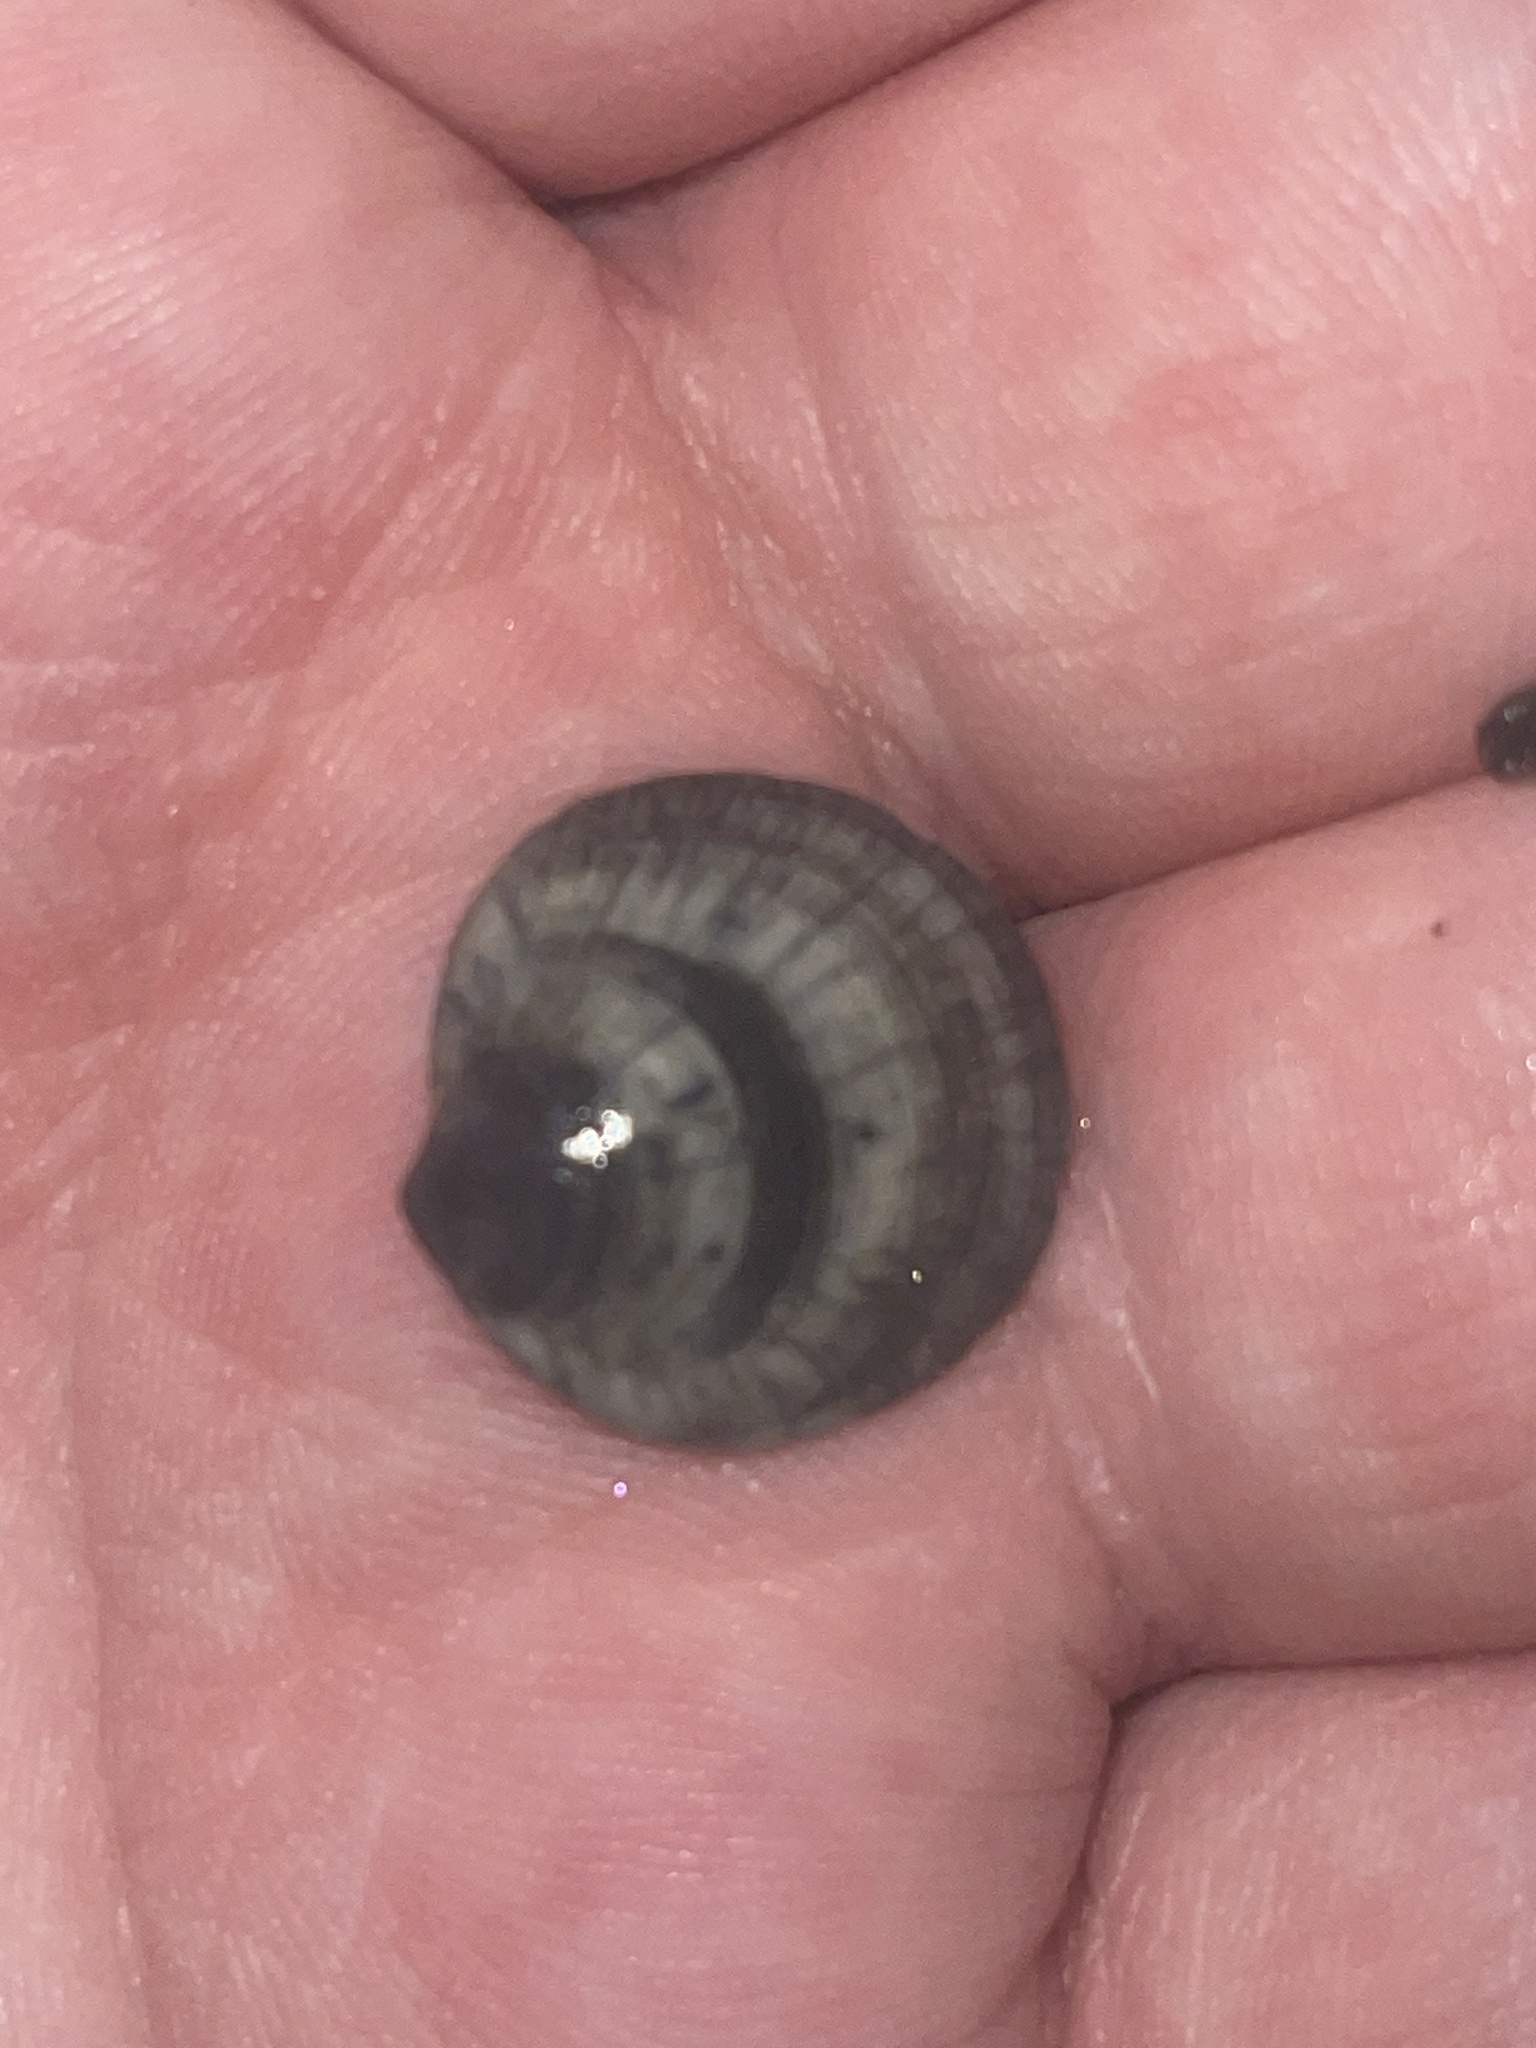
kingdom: Animalia
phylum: Mollusca
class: Bivalvia
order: Lucinida
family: Lucinidae
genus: Callucina
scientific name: Callucina keenae
